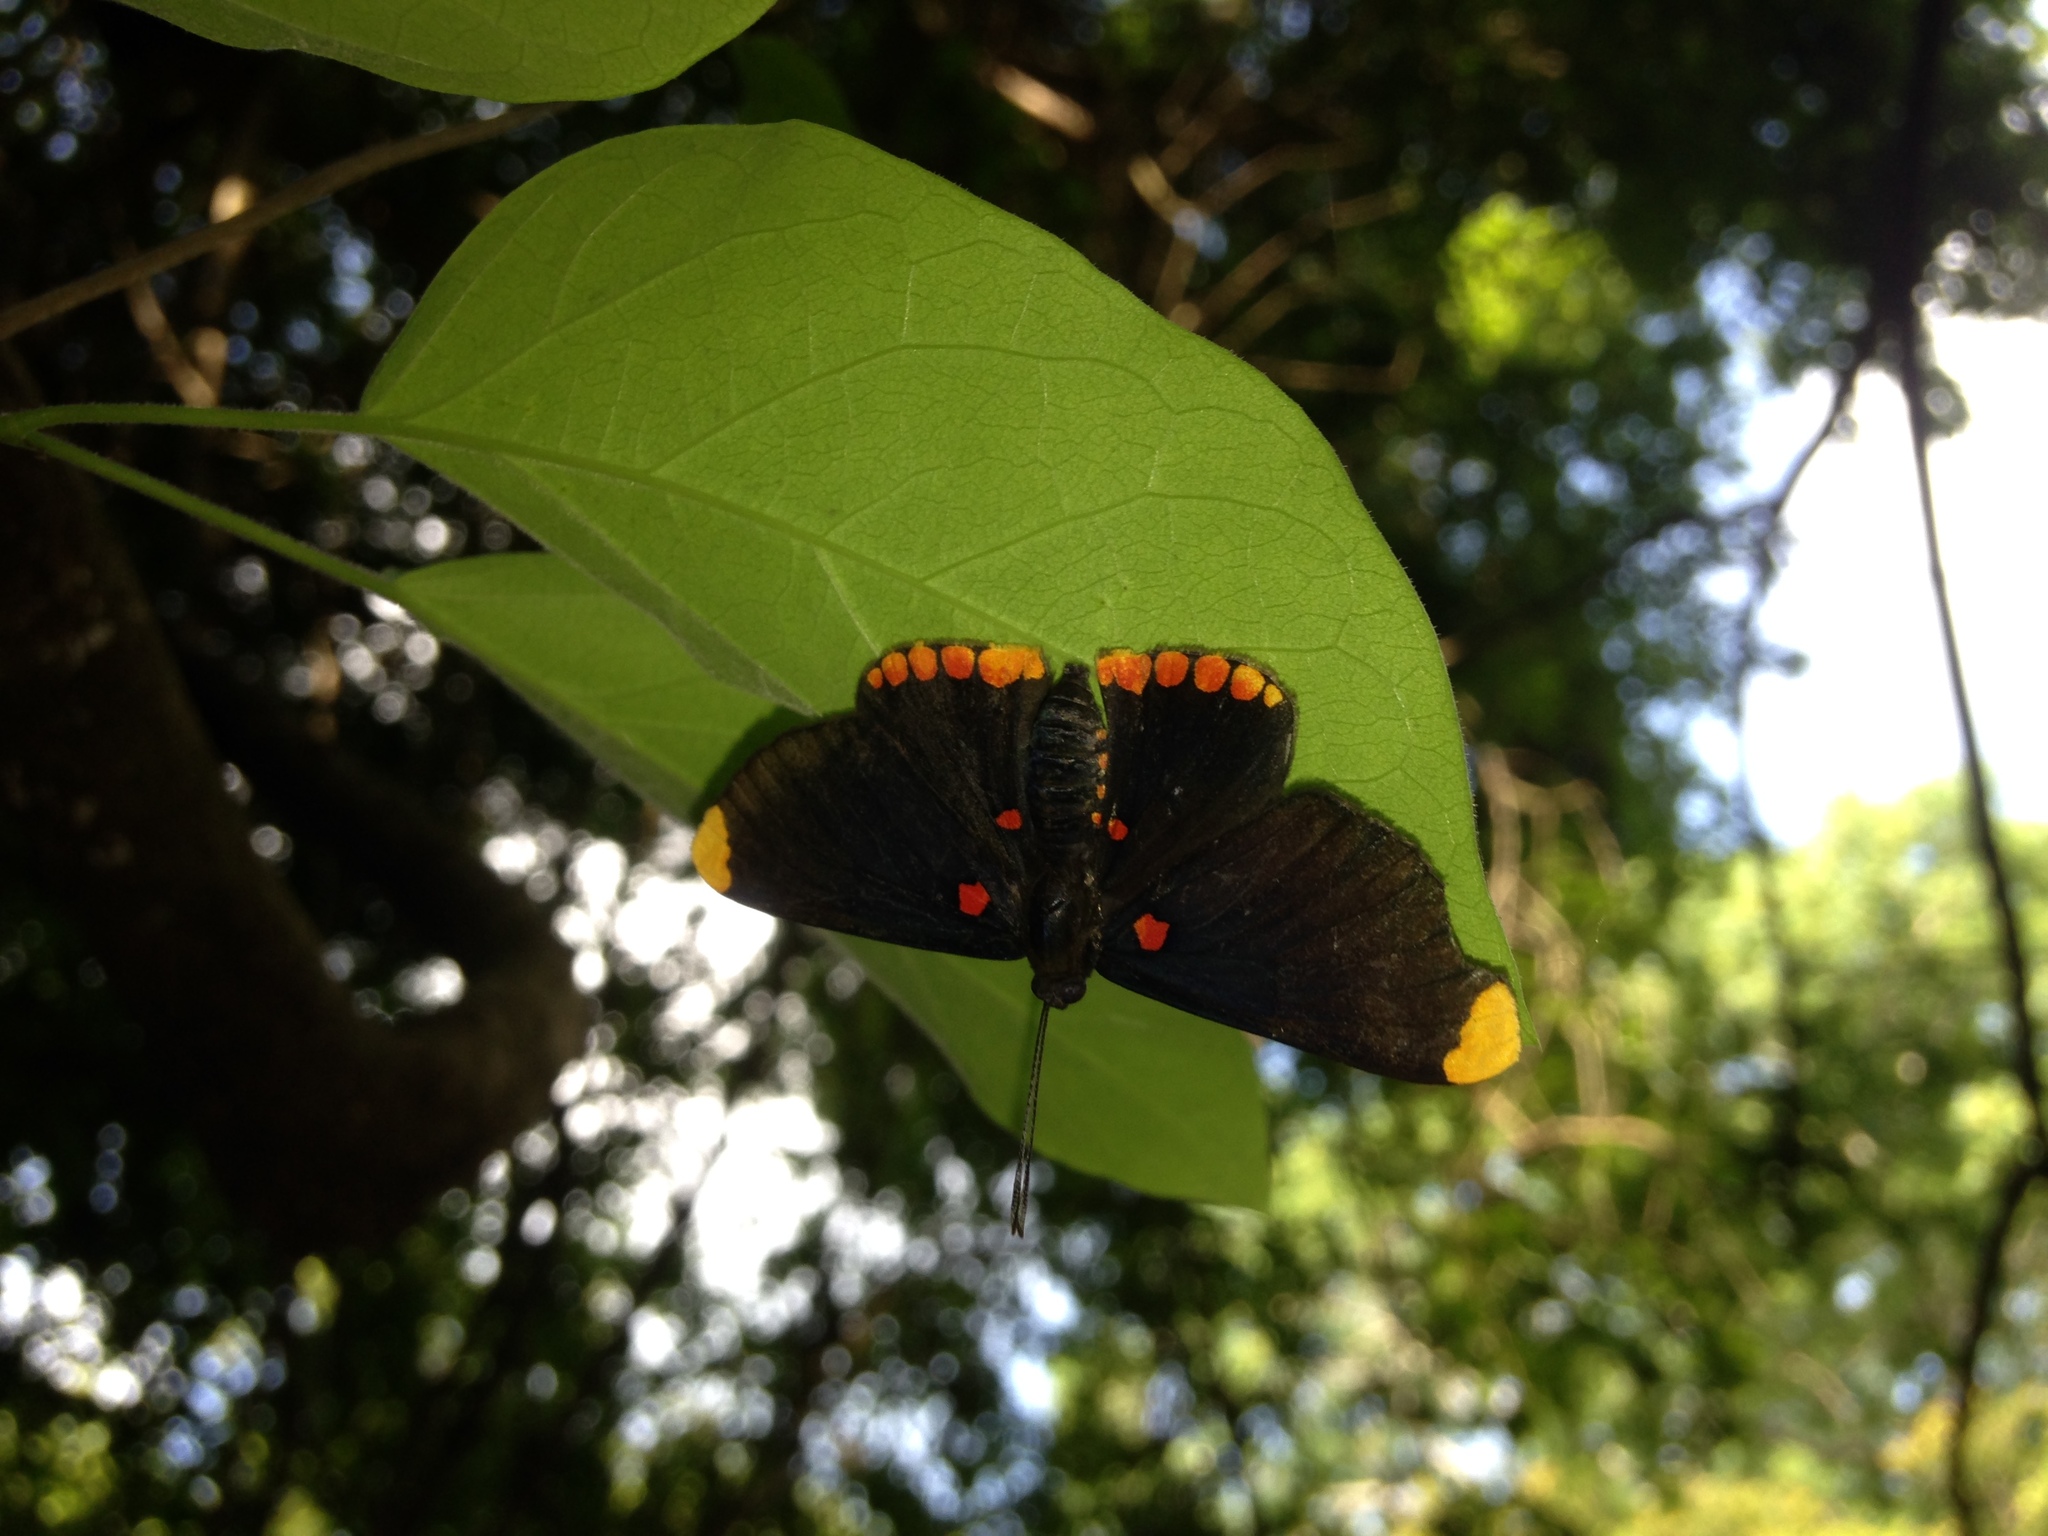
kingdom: Animalia
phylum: Arthropoda
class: Insecta
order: Lepidoptera
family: Lycaenidae
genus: Melanis
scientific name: Melanis pixe
